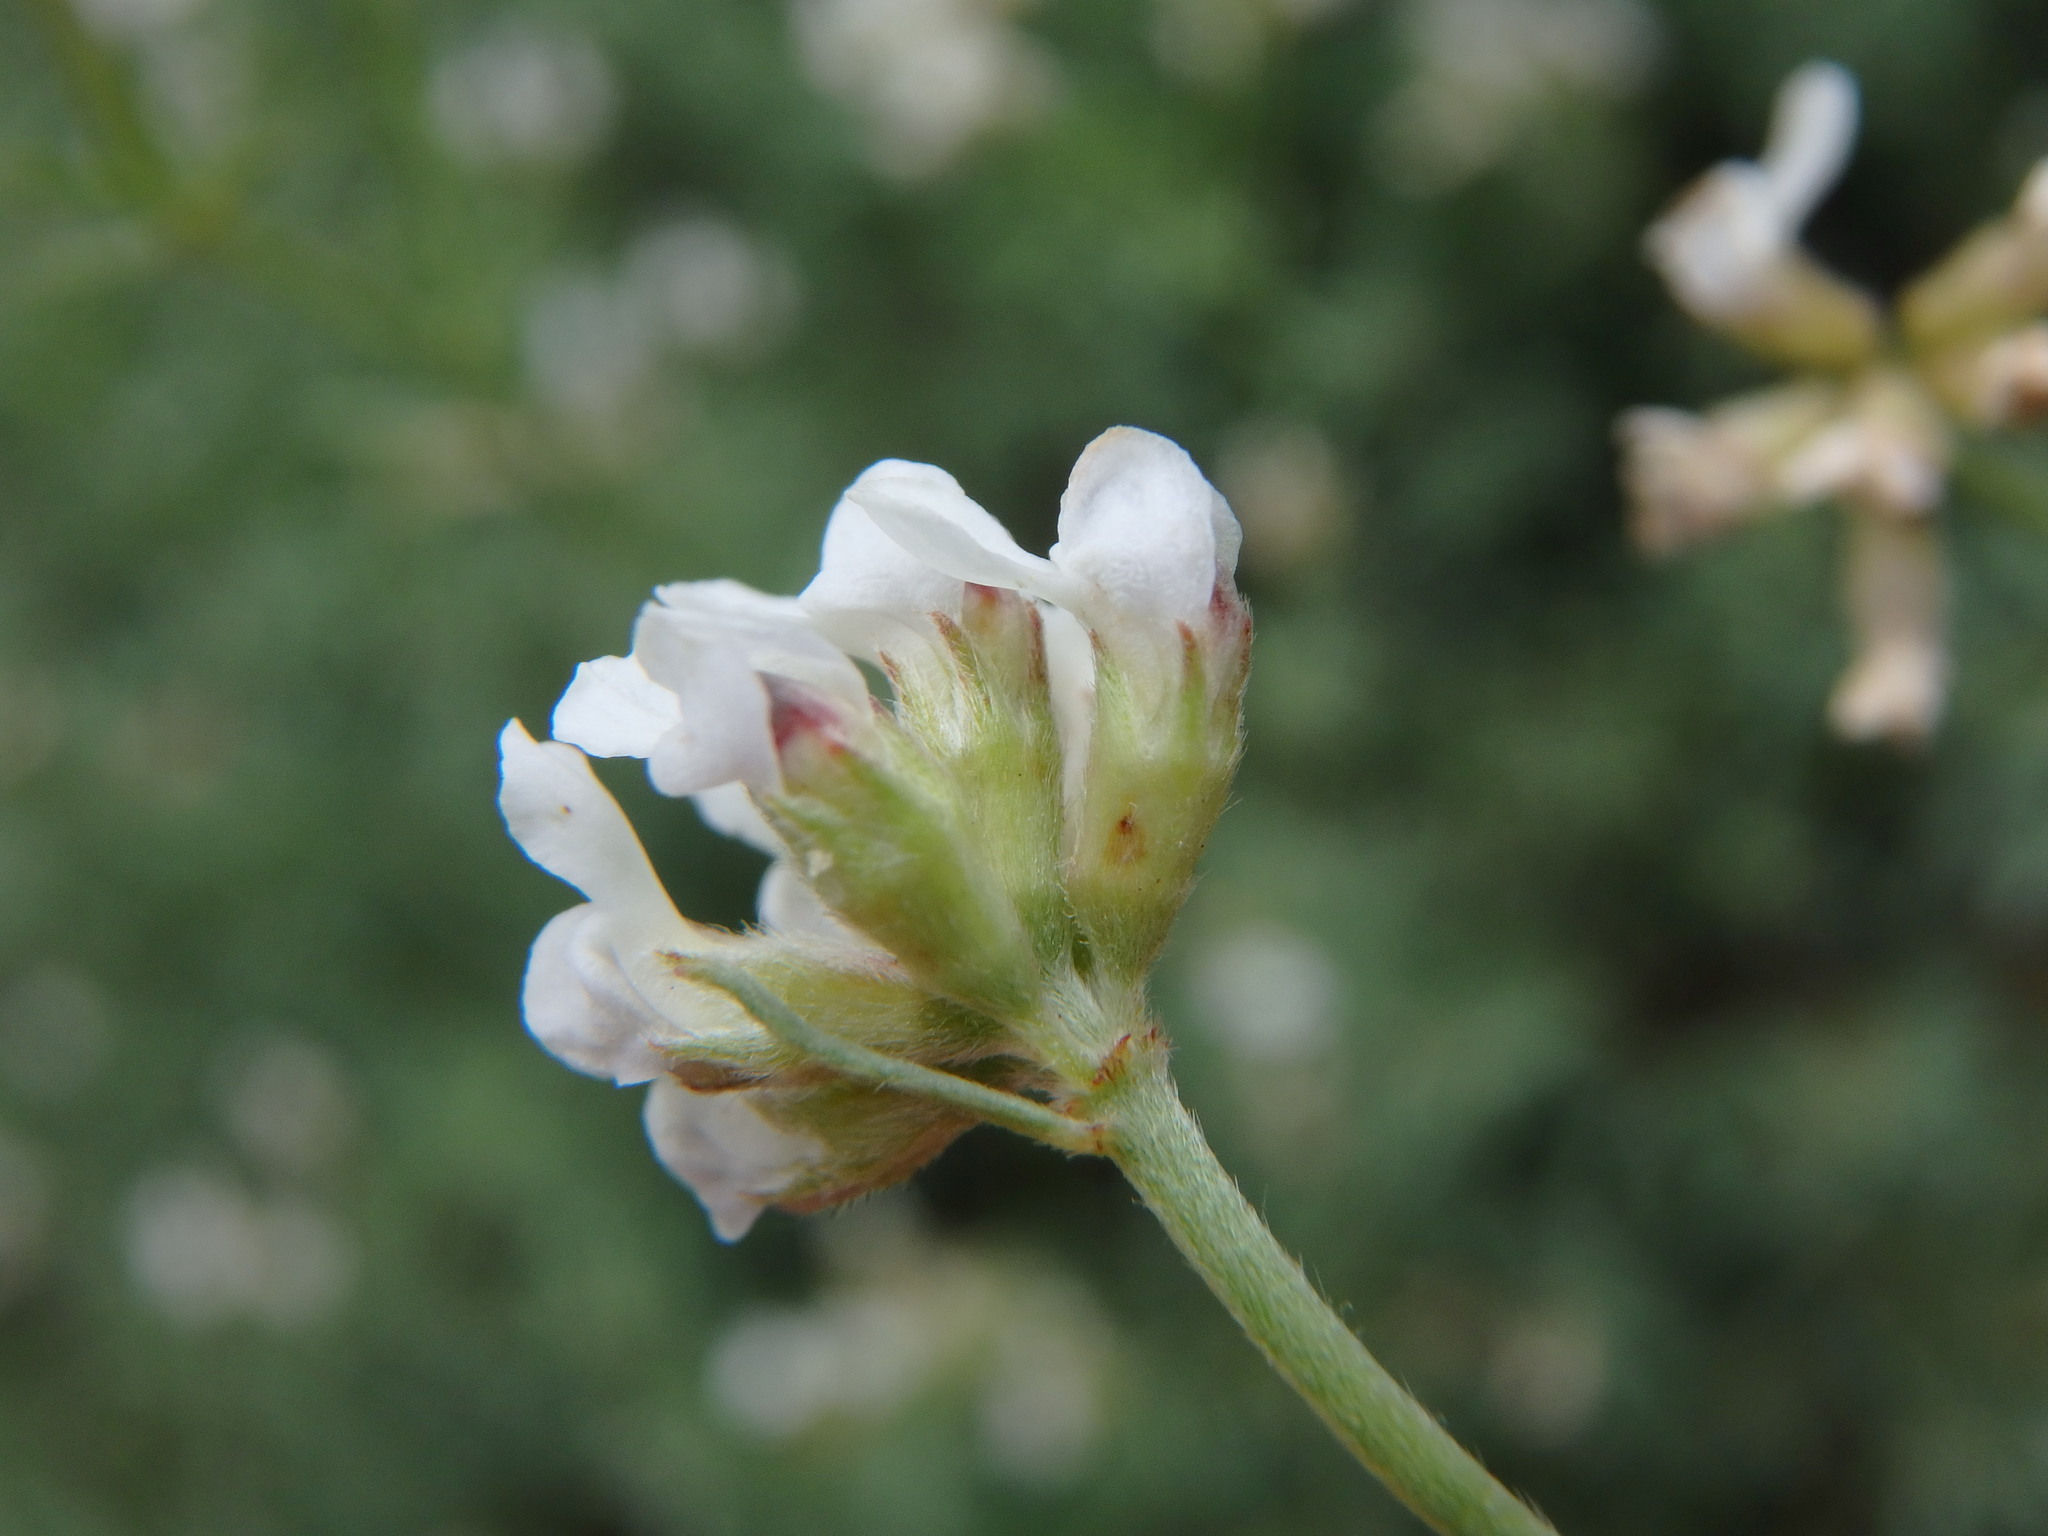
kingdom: Plantae
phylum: Tracheophyta
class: Magnoliopsida
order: Fabales
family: Fabaceae
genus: Lotus
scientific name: Lotus dorycnium
